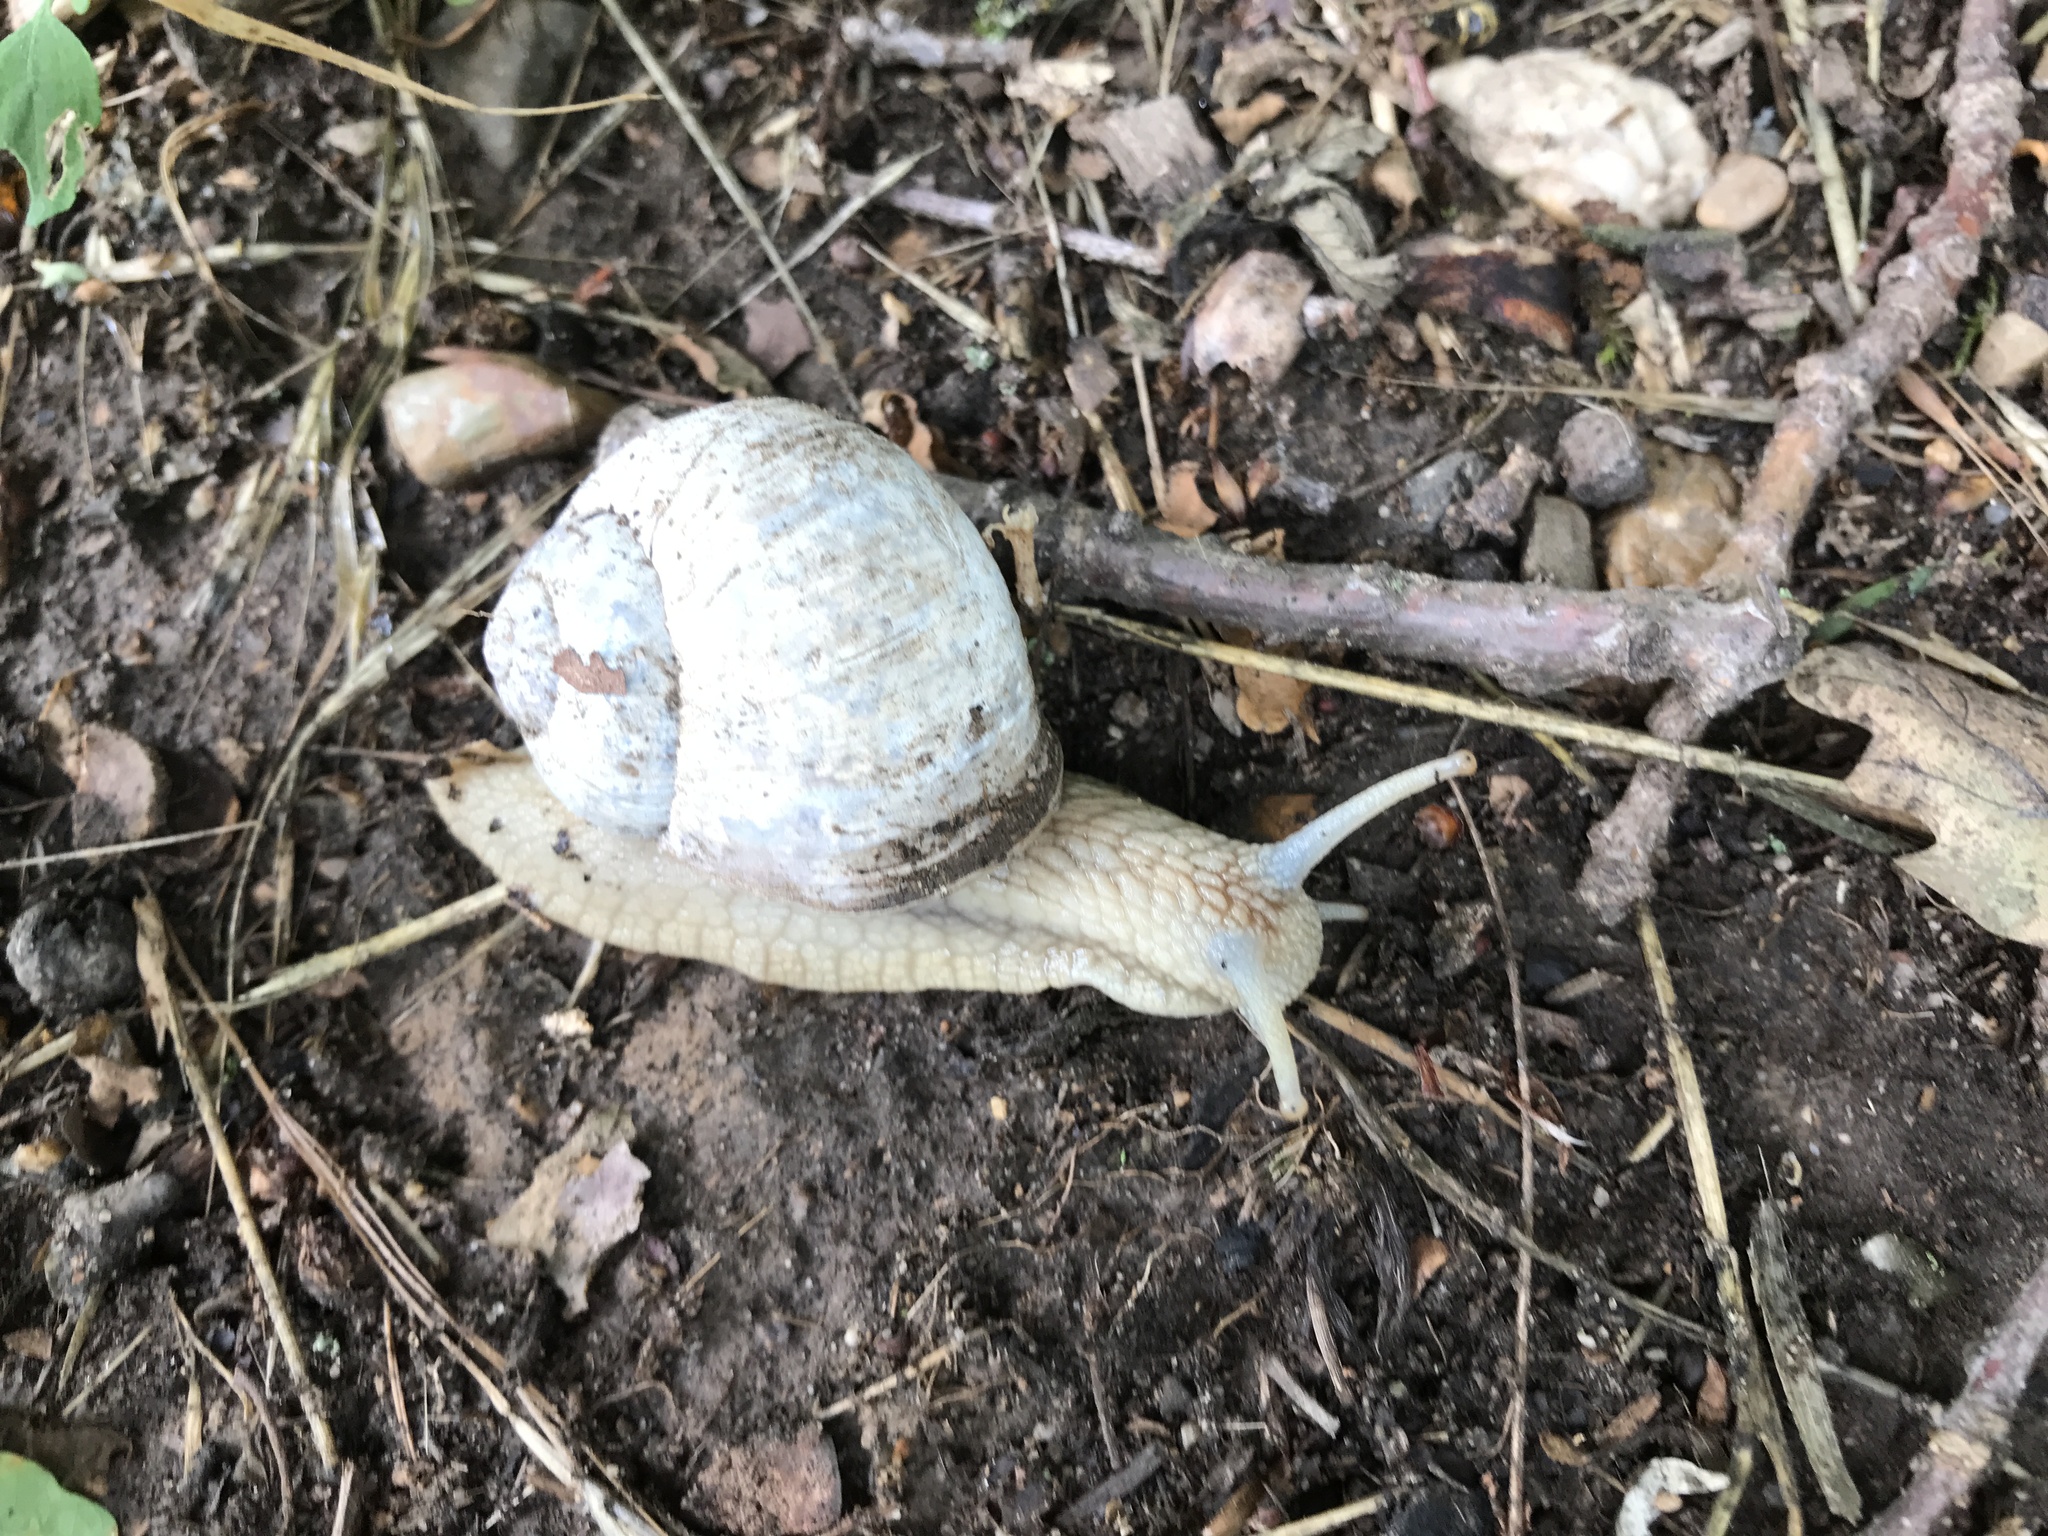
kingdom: Animalia
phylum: Mollusca
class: Gastropoda
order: Stylommatophora
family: Helicidae
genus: Helix
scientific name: Helix pomatia
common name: Roman snail
